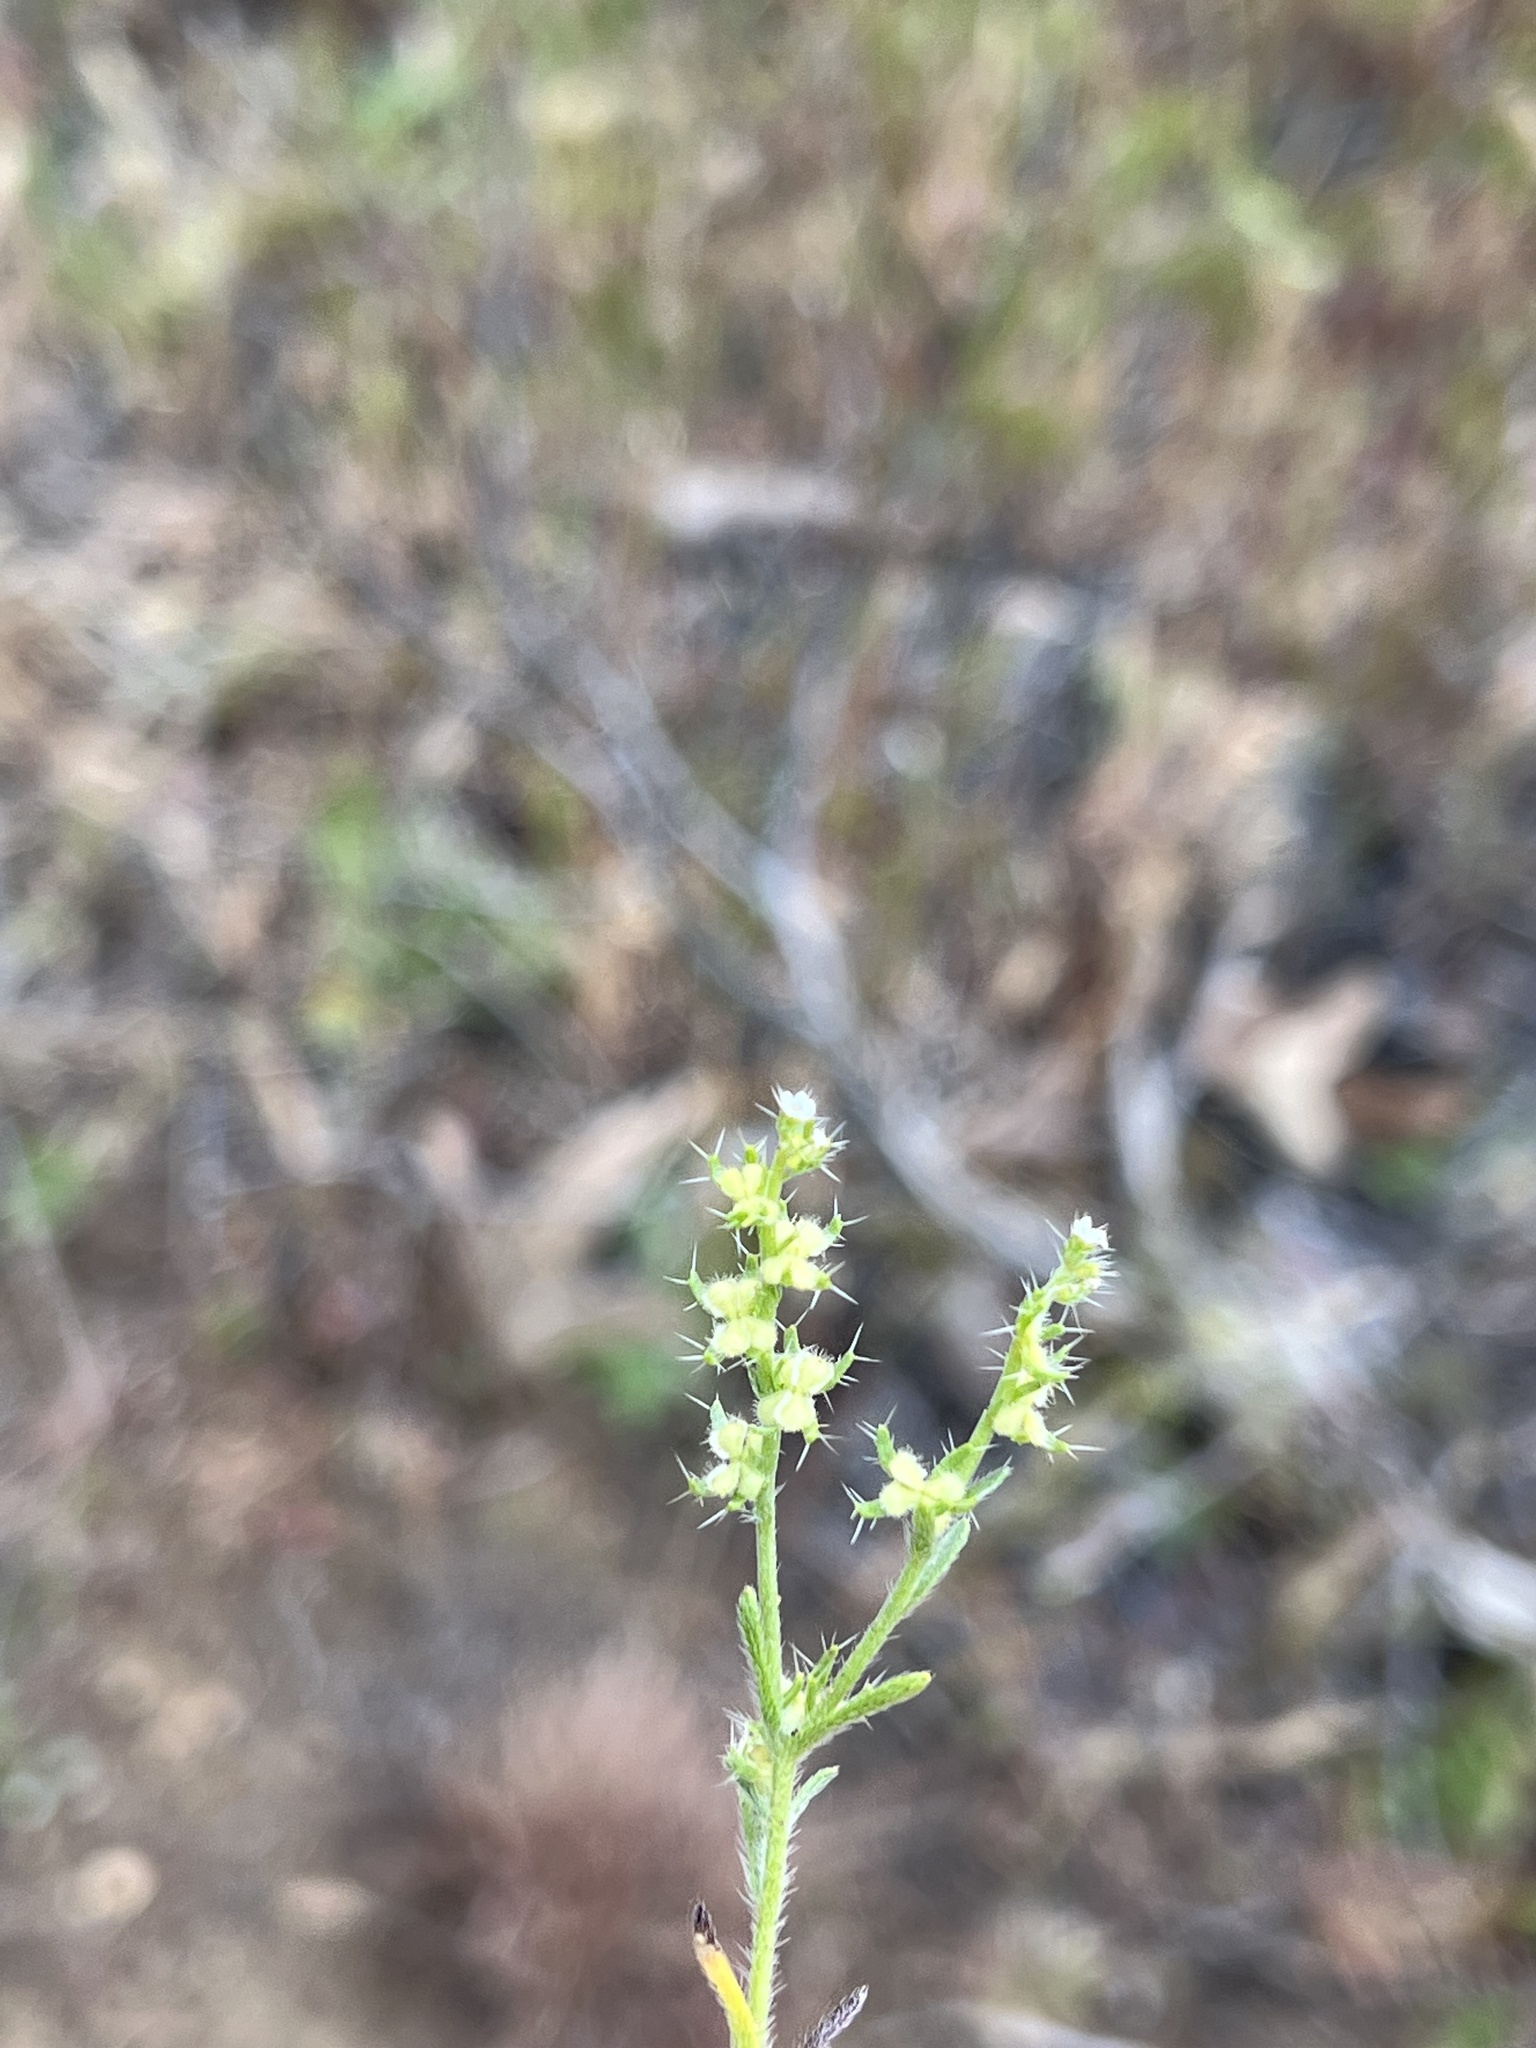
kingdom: Plantae
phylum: Tracheophyta
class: Magnoliopsida
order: Boraginales
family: Boraginaceae
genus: Pectocarya
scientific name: Pectocarya setosa
